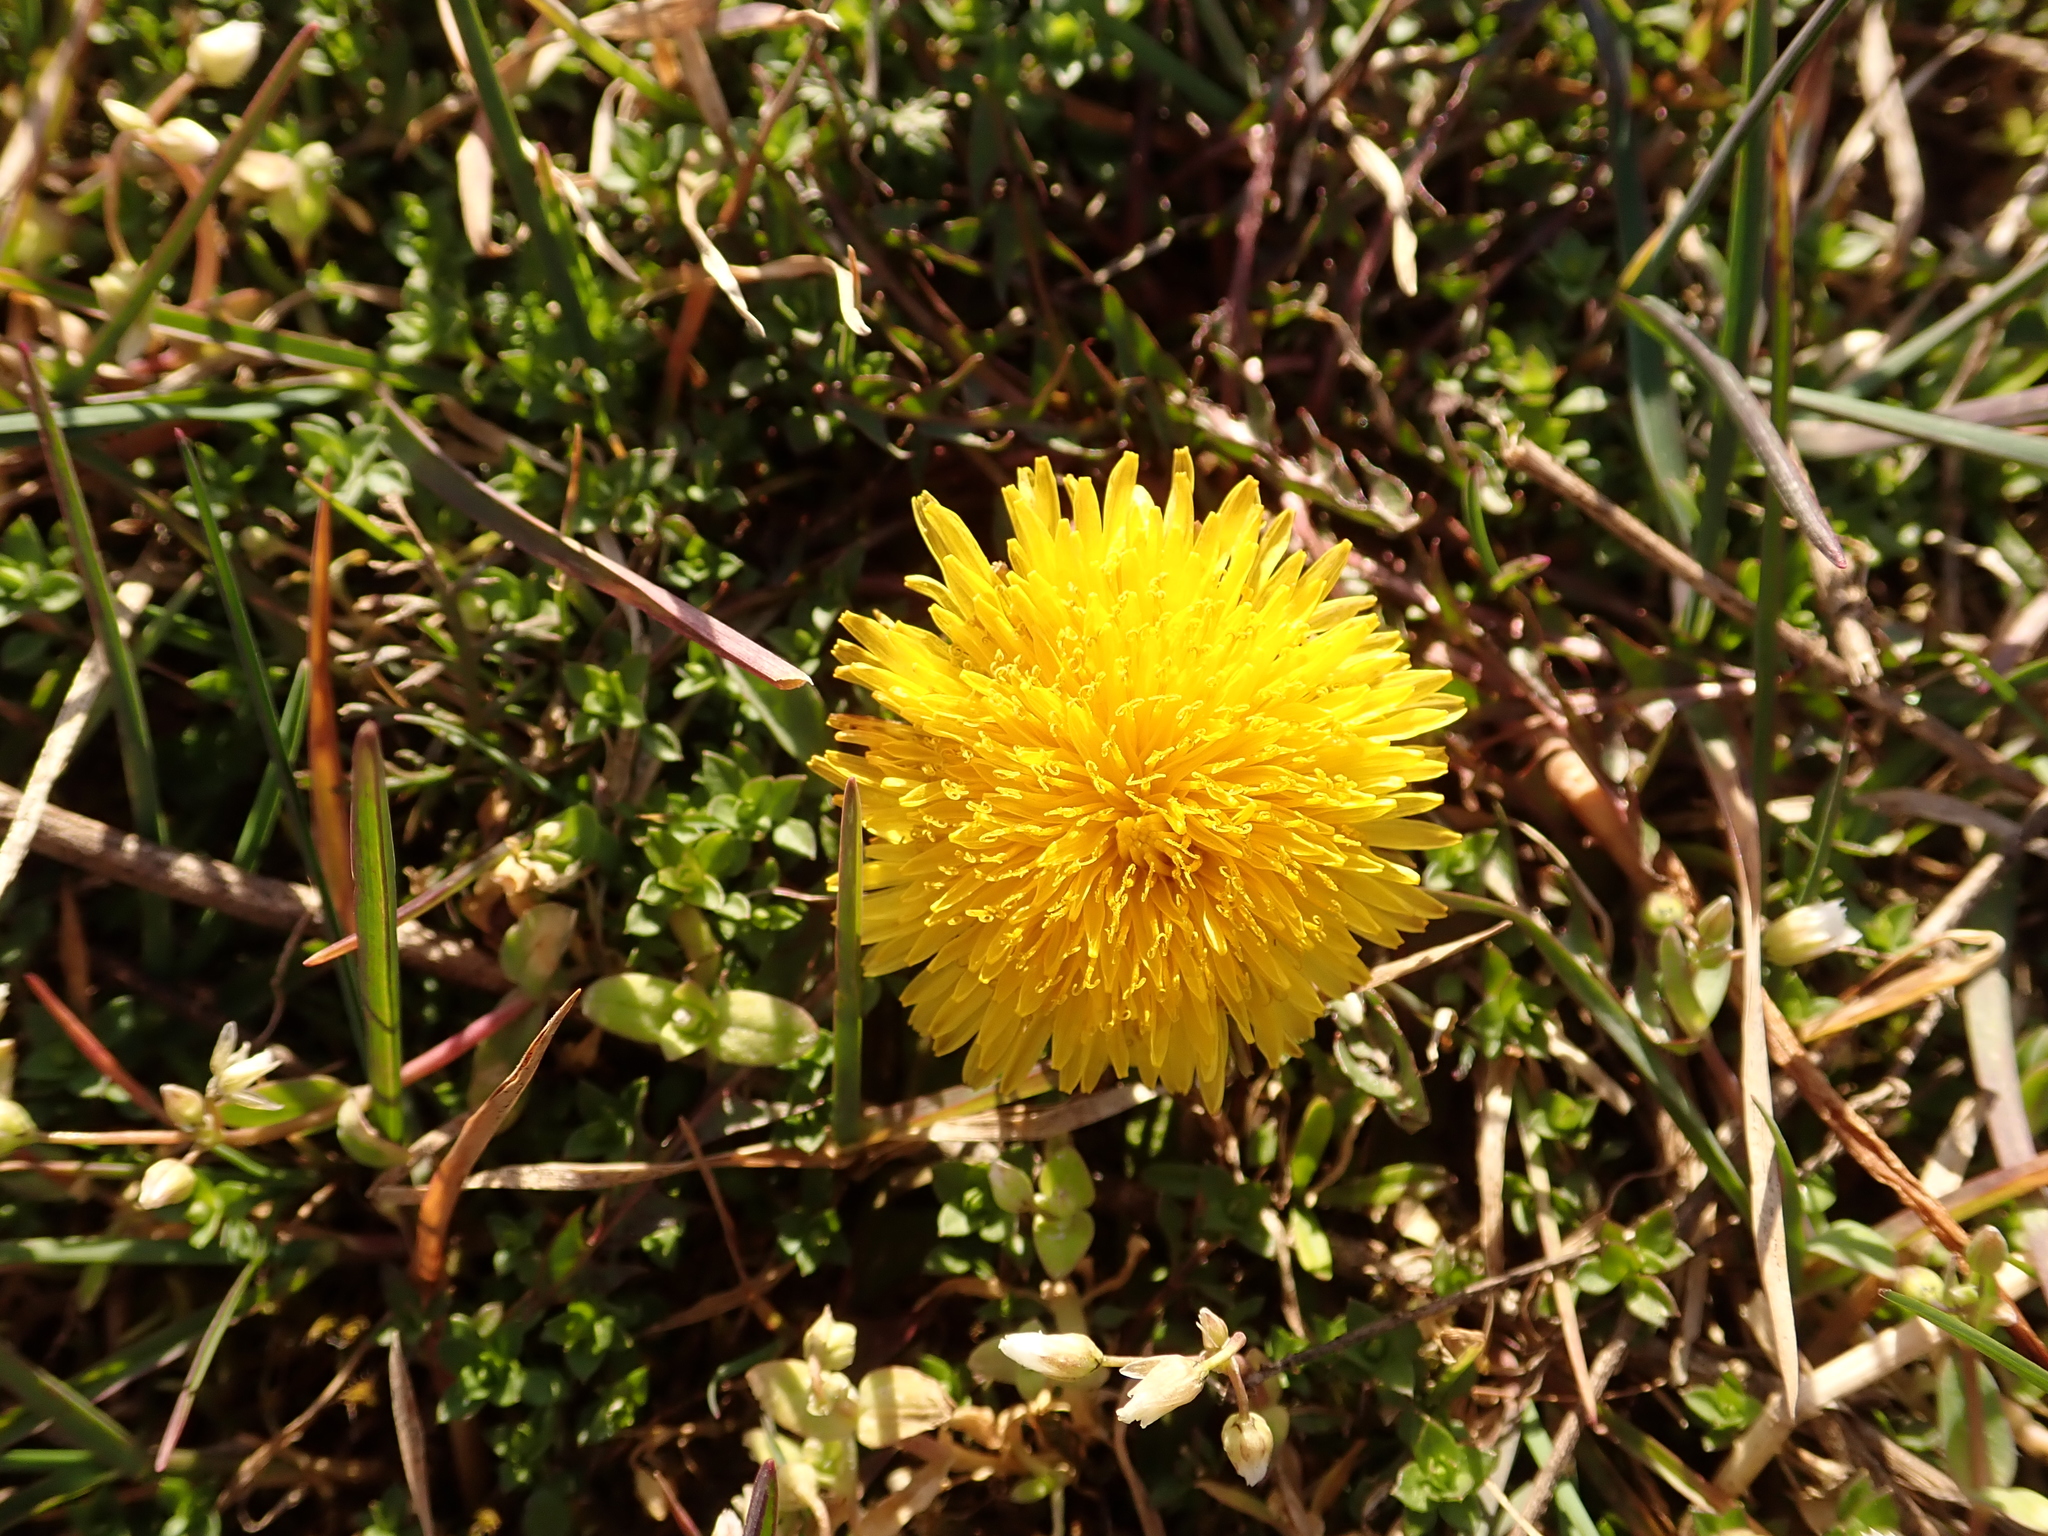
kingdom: Plantae
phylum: Tracheophyta
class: Magnoliopsida
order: Asterales
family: Asteraceae
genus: Taraxacum
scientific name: Taraxacum officinale
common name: Common dandelion
